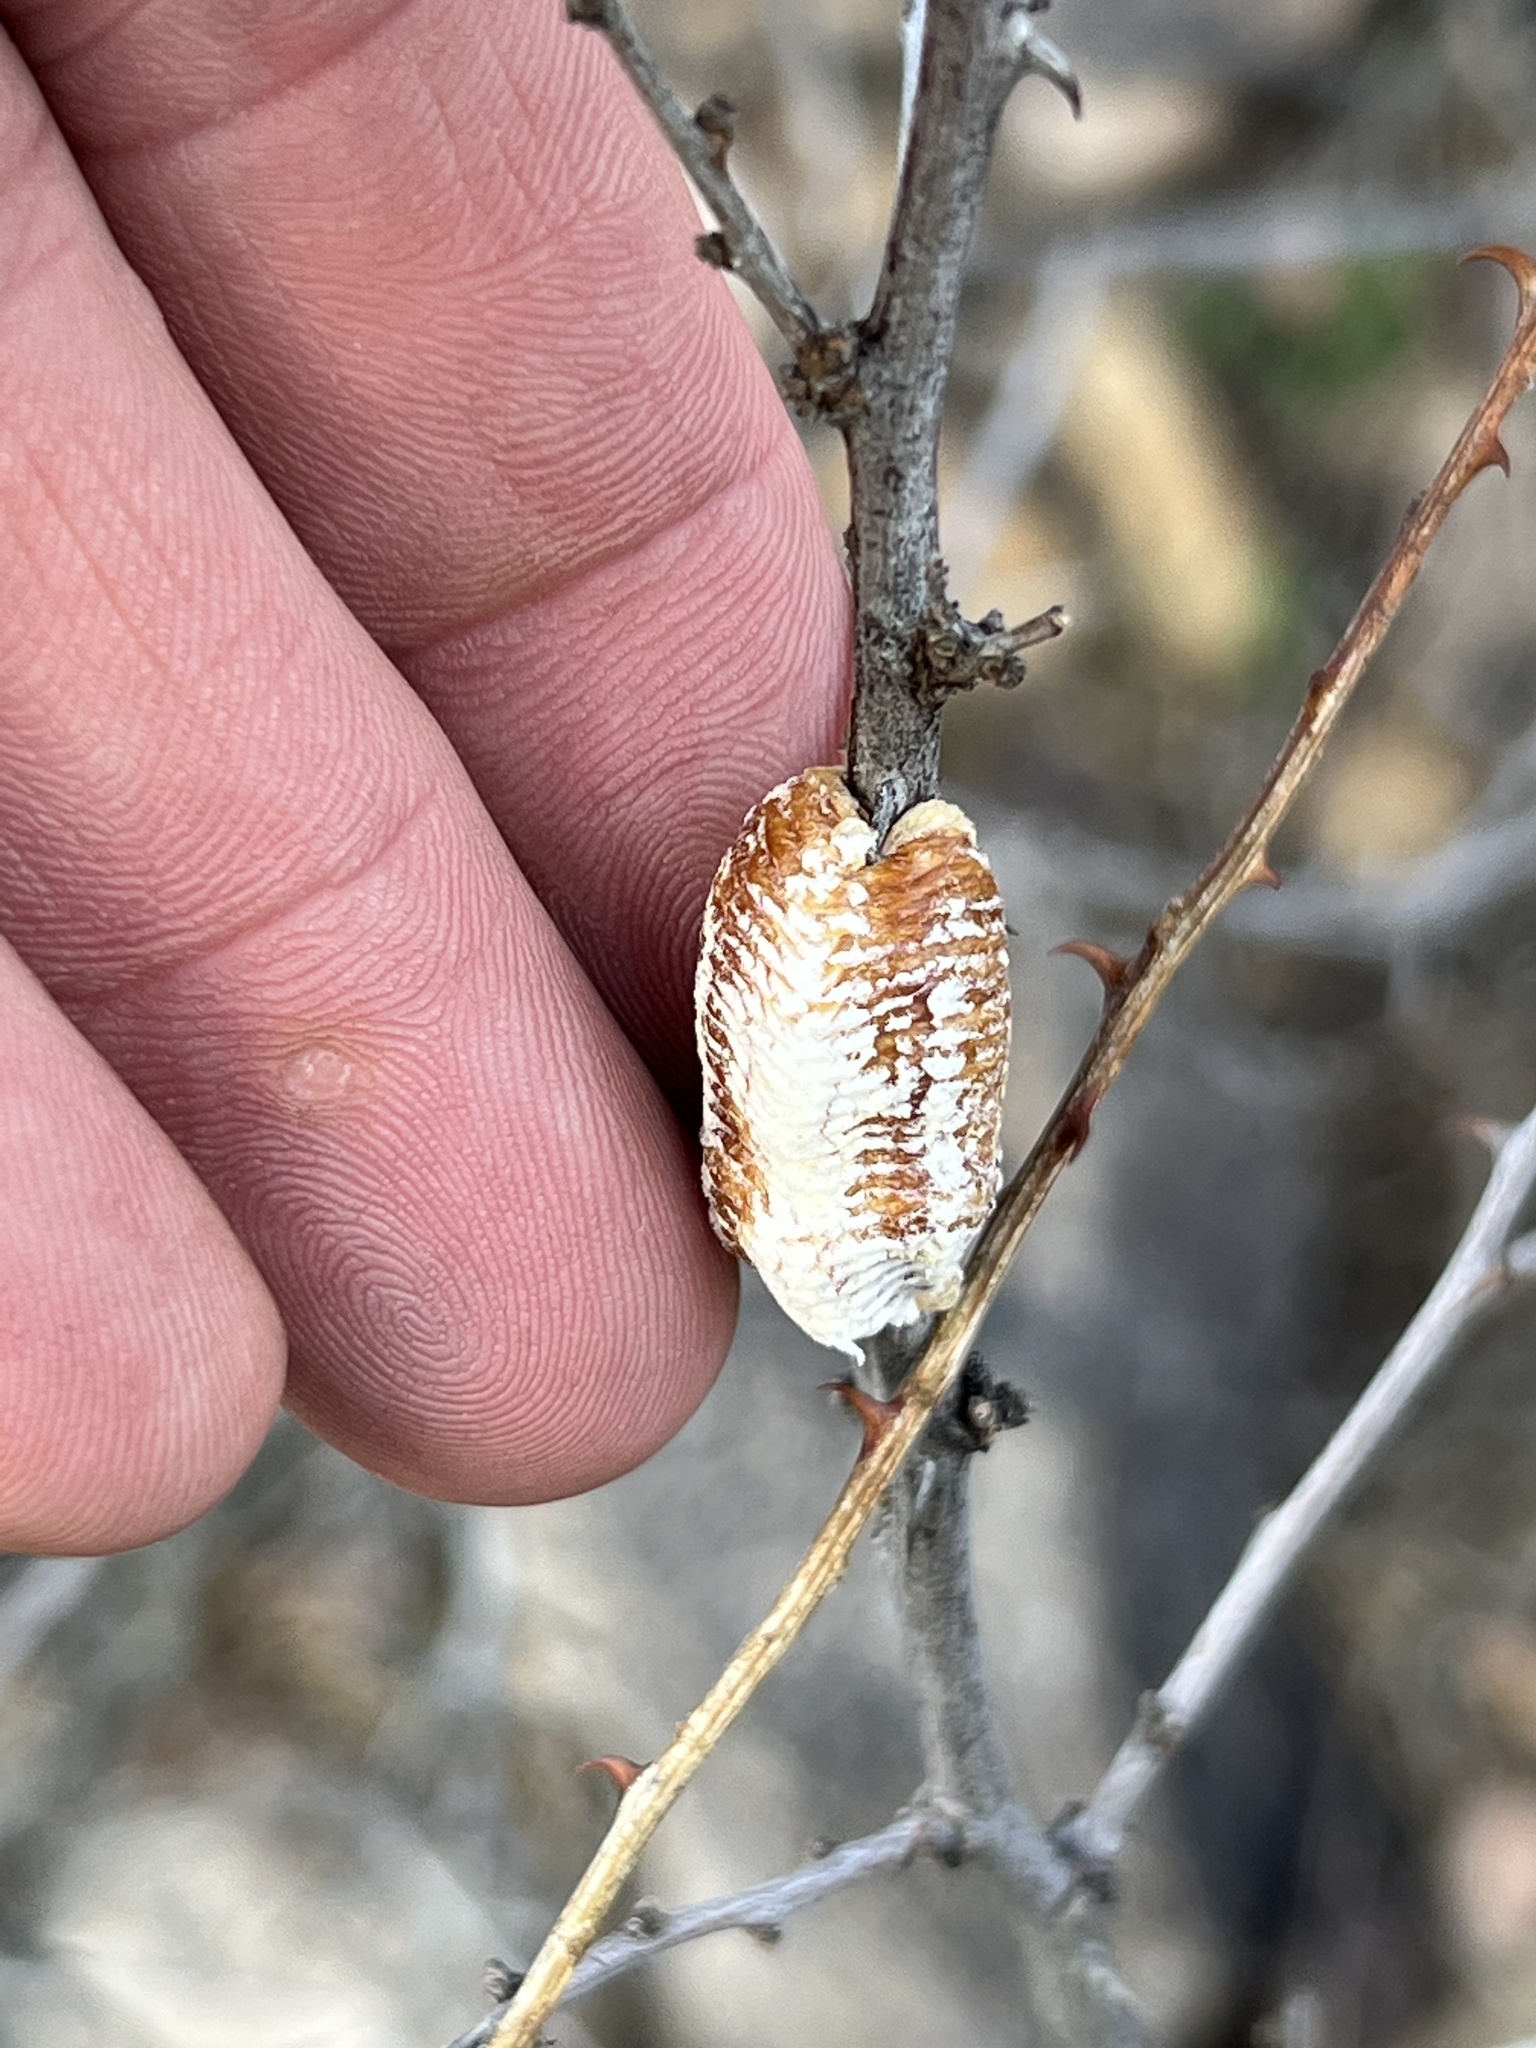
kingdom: Animalia
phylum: Arthropoda
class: Insecta
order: Mantodea
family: Mantidae
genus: Stagmomantis
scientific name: Stagmomantis limbata
